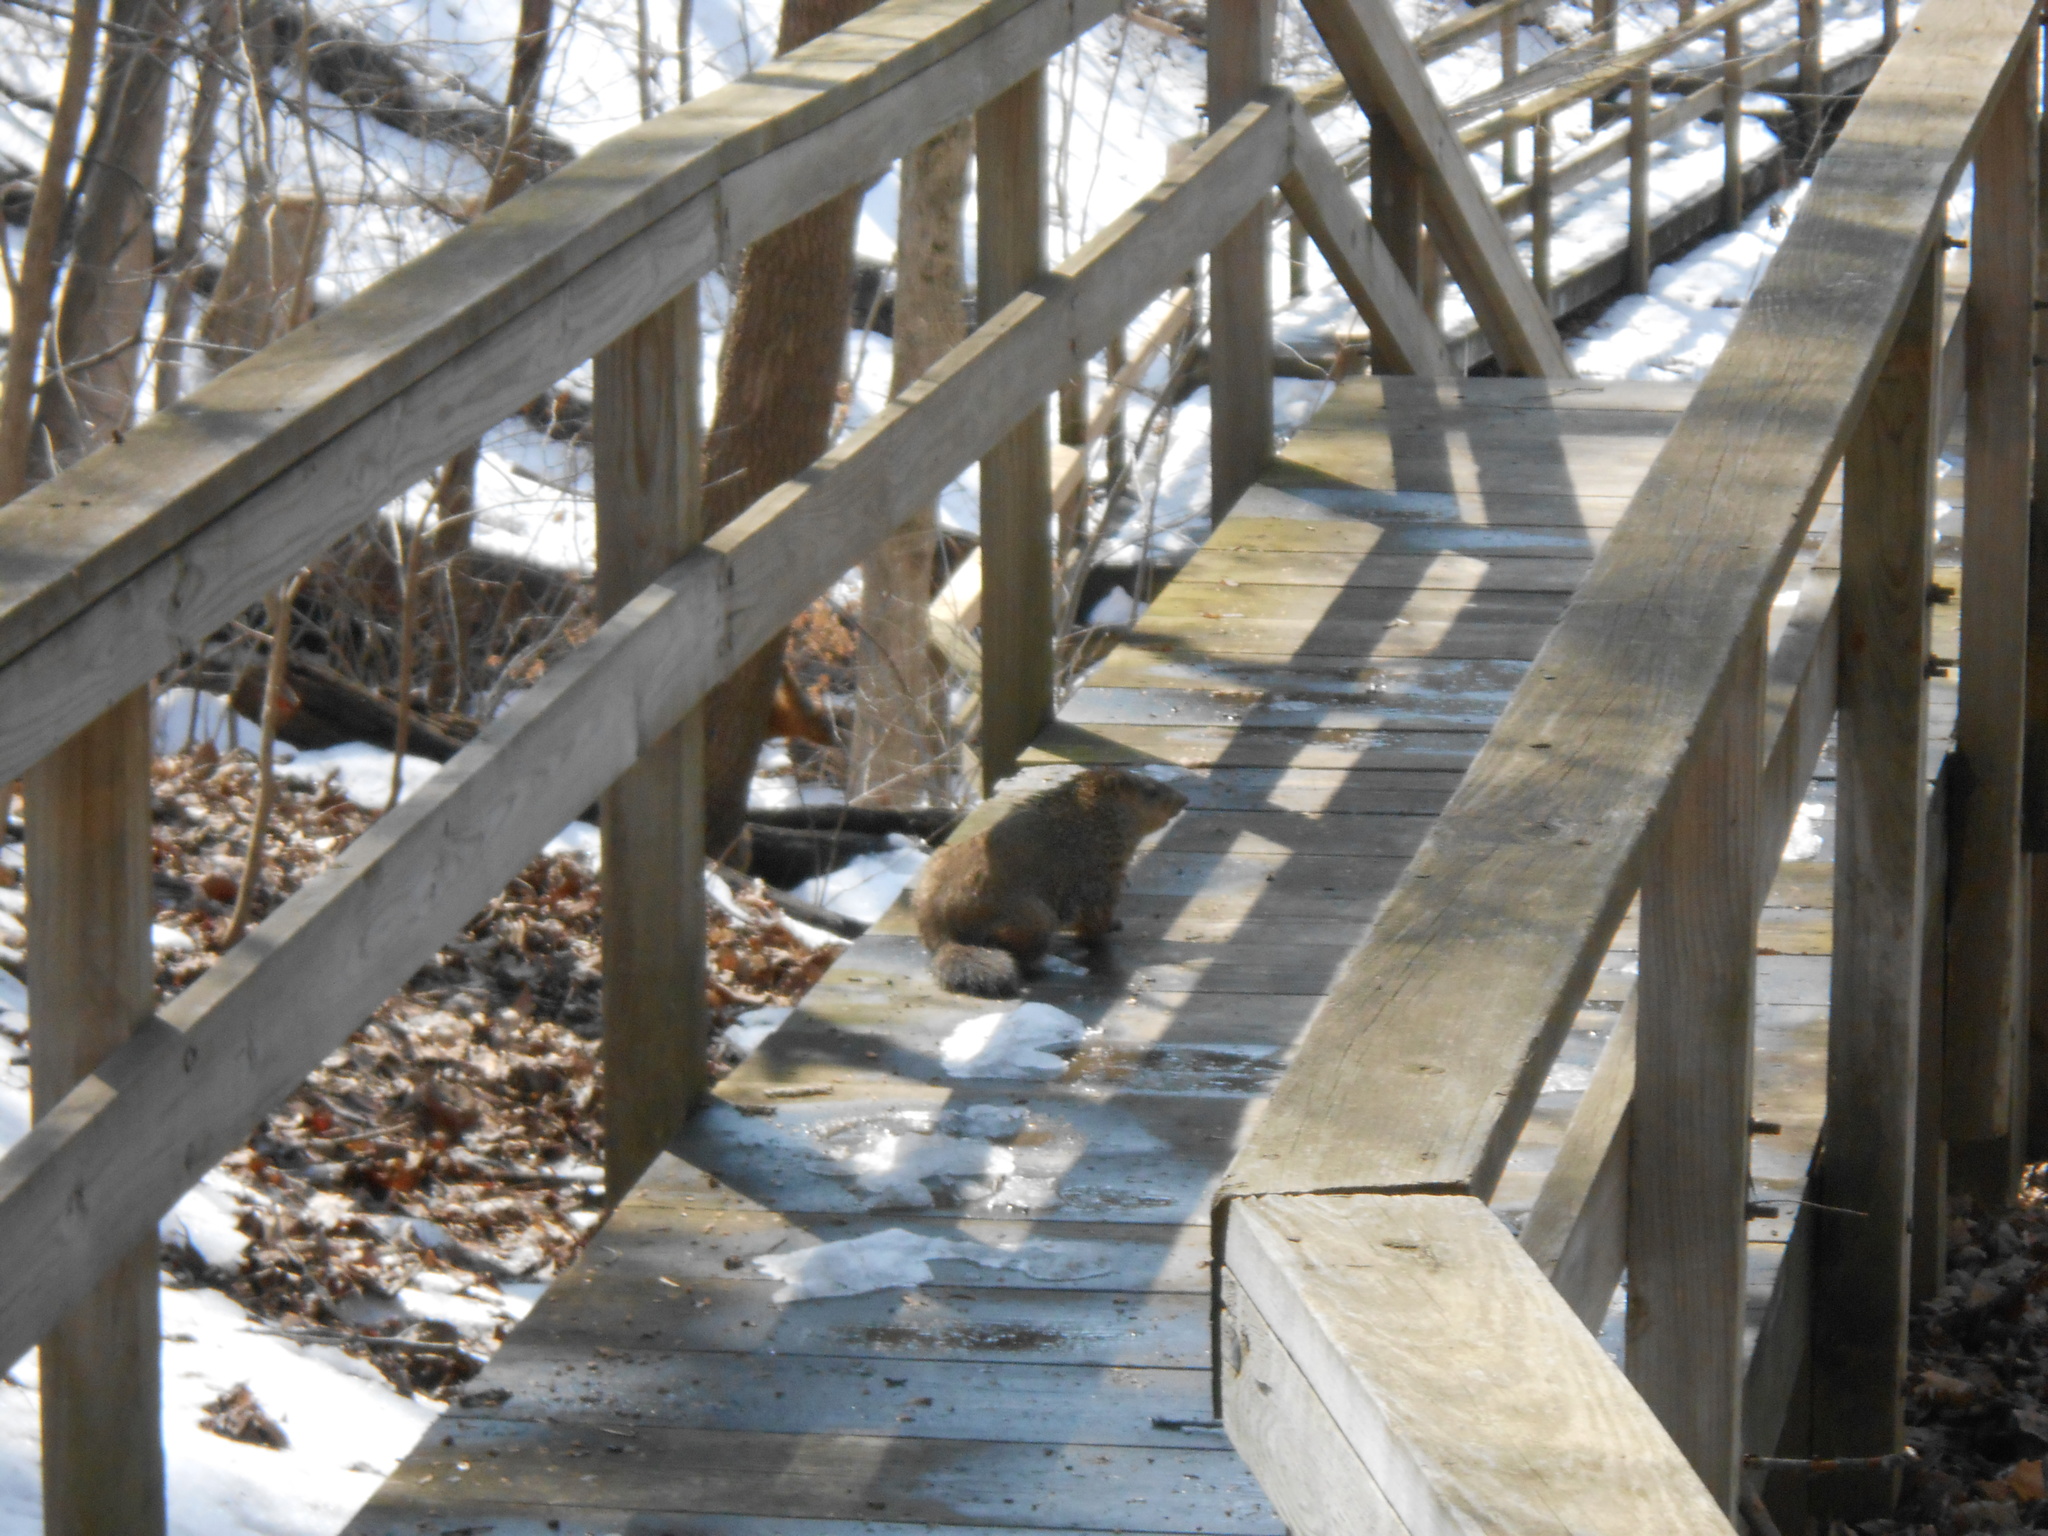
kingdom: Animalia
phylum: Chordata
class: Mammalia
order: Rodentia
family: Sciuridae
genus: Marmota
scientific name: Marmota monax
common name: Groundhog
